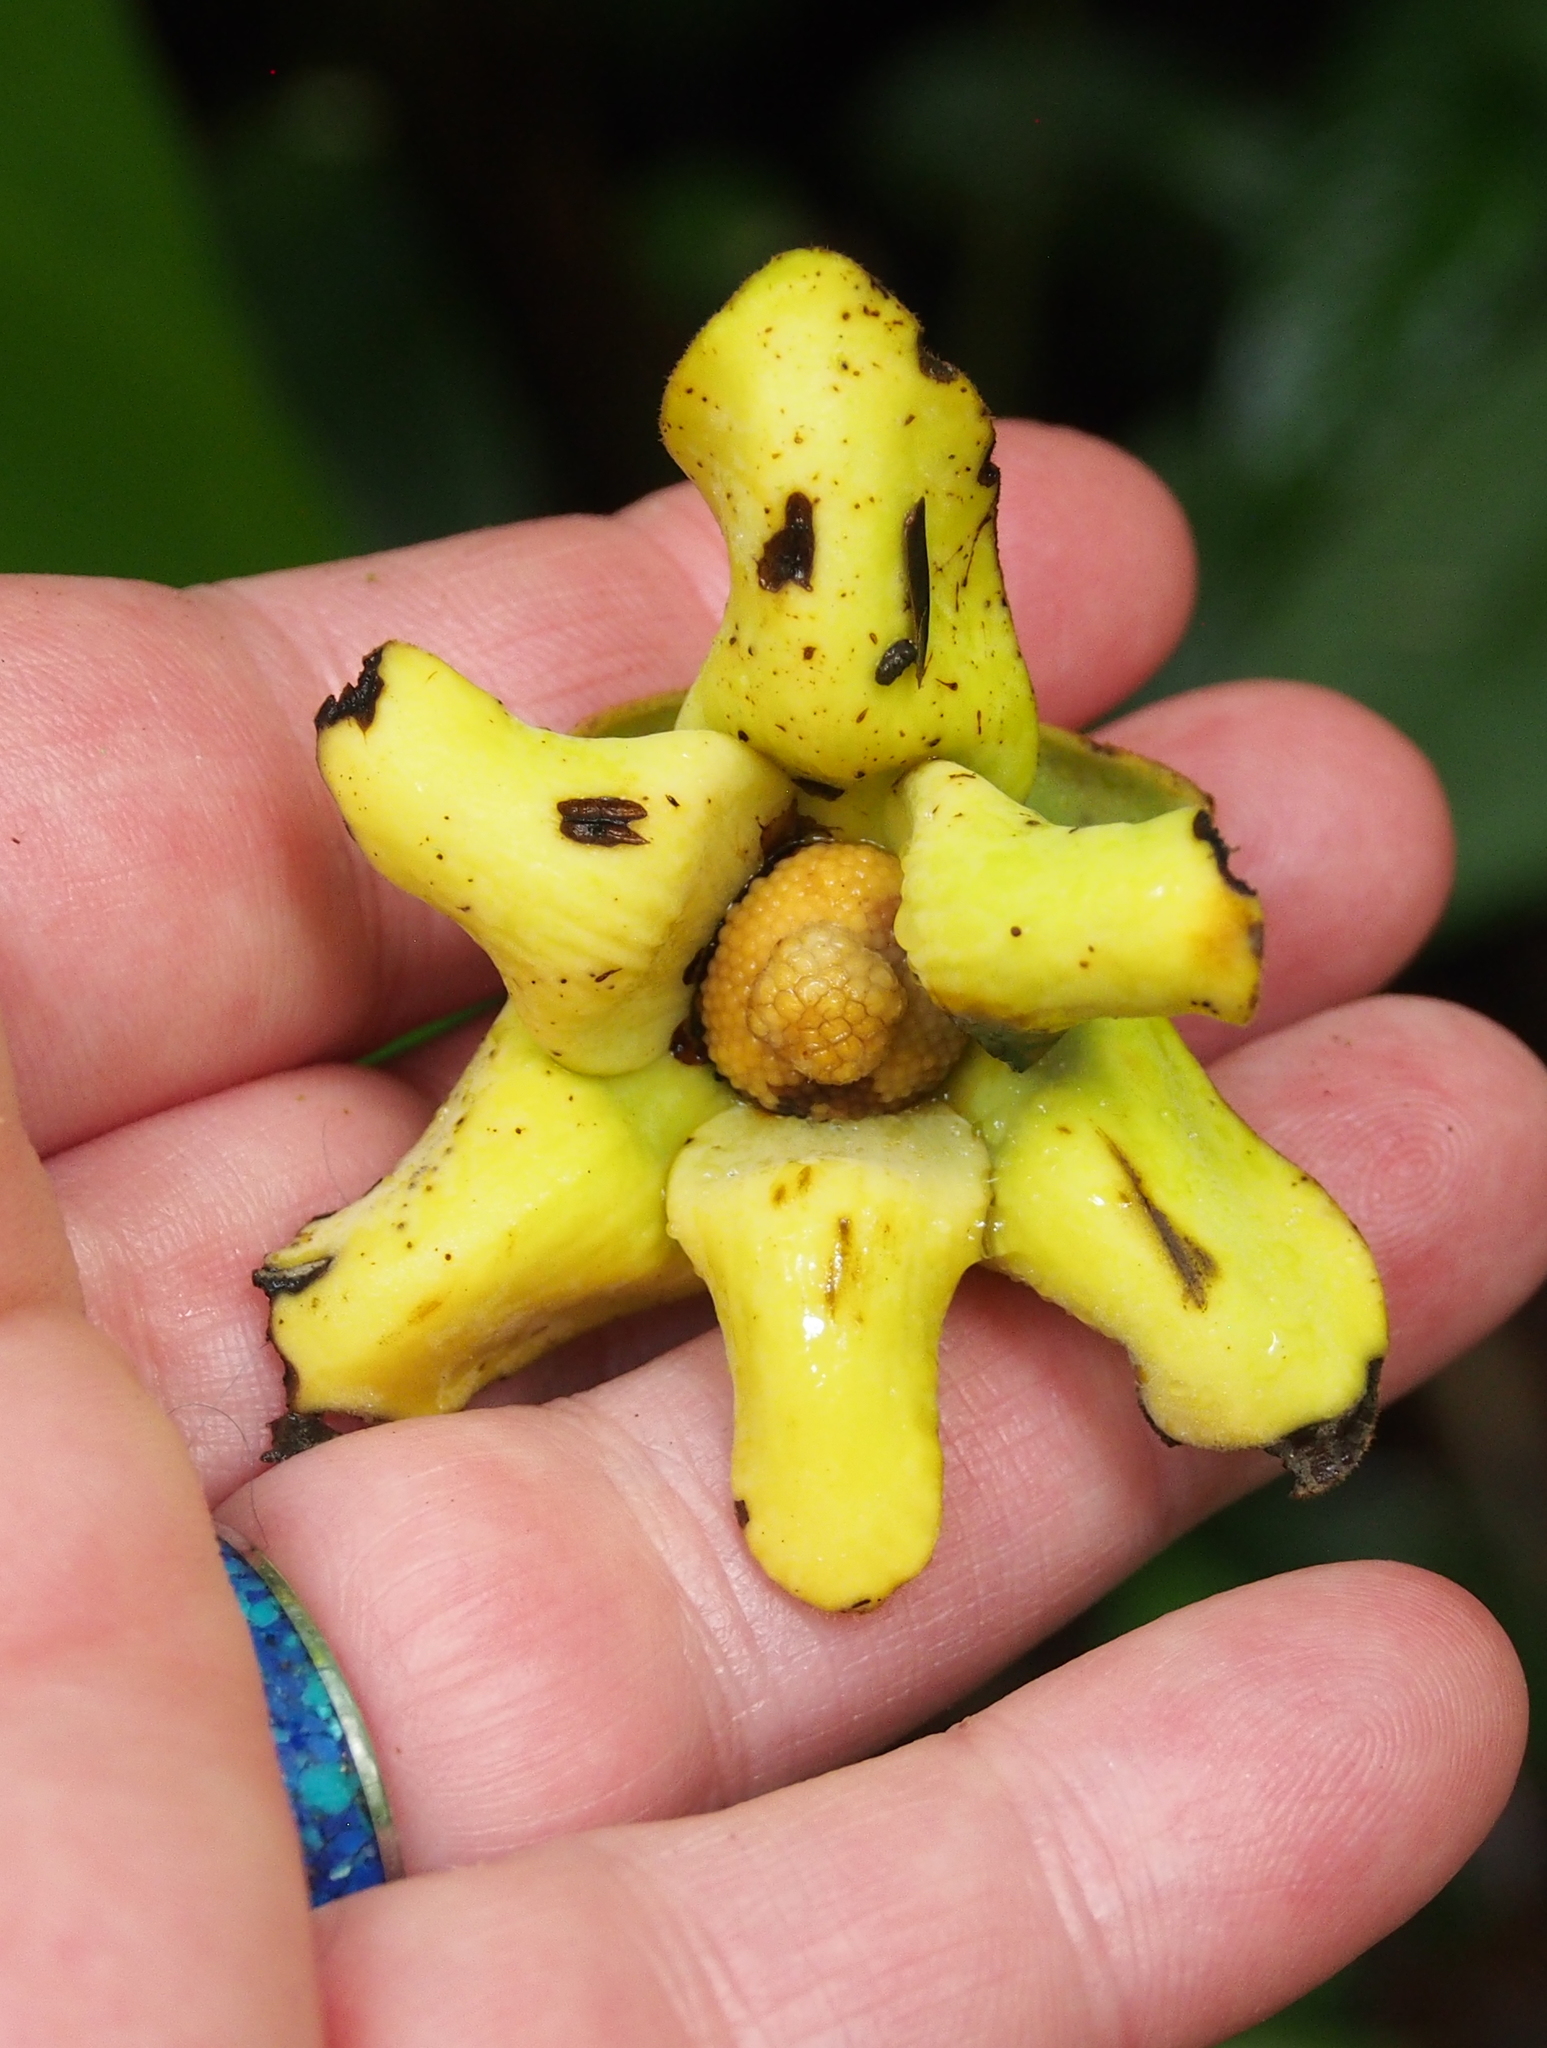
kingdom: Plantae
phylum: Tracheophyta
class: Magnoliopsida
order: Magnoliales
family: Annonaceae
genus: Guatteria
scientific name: Guatteria aeruginosa
